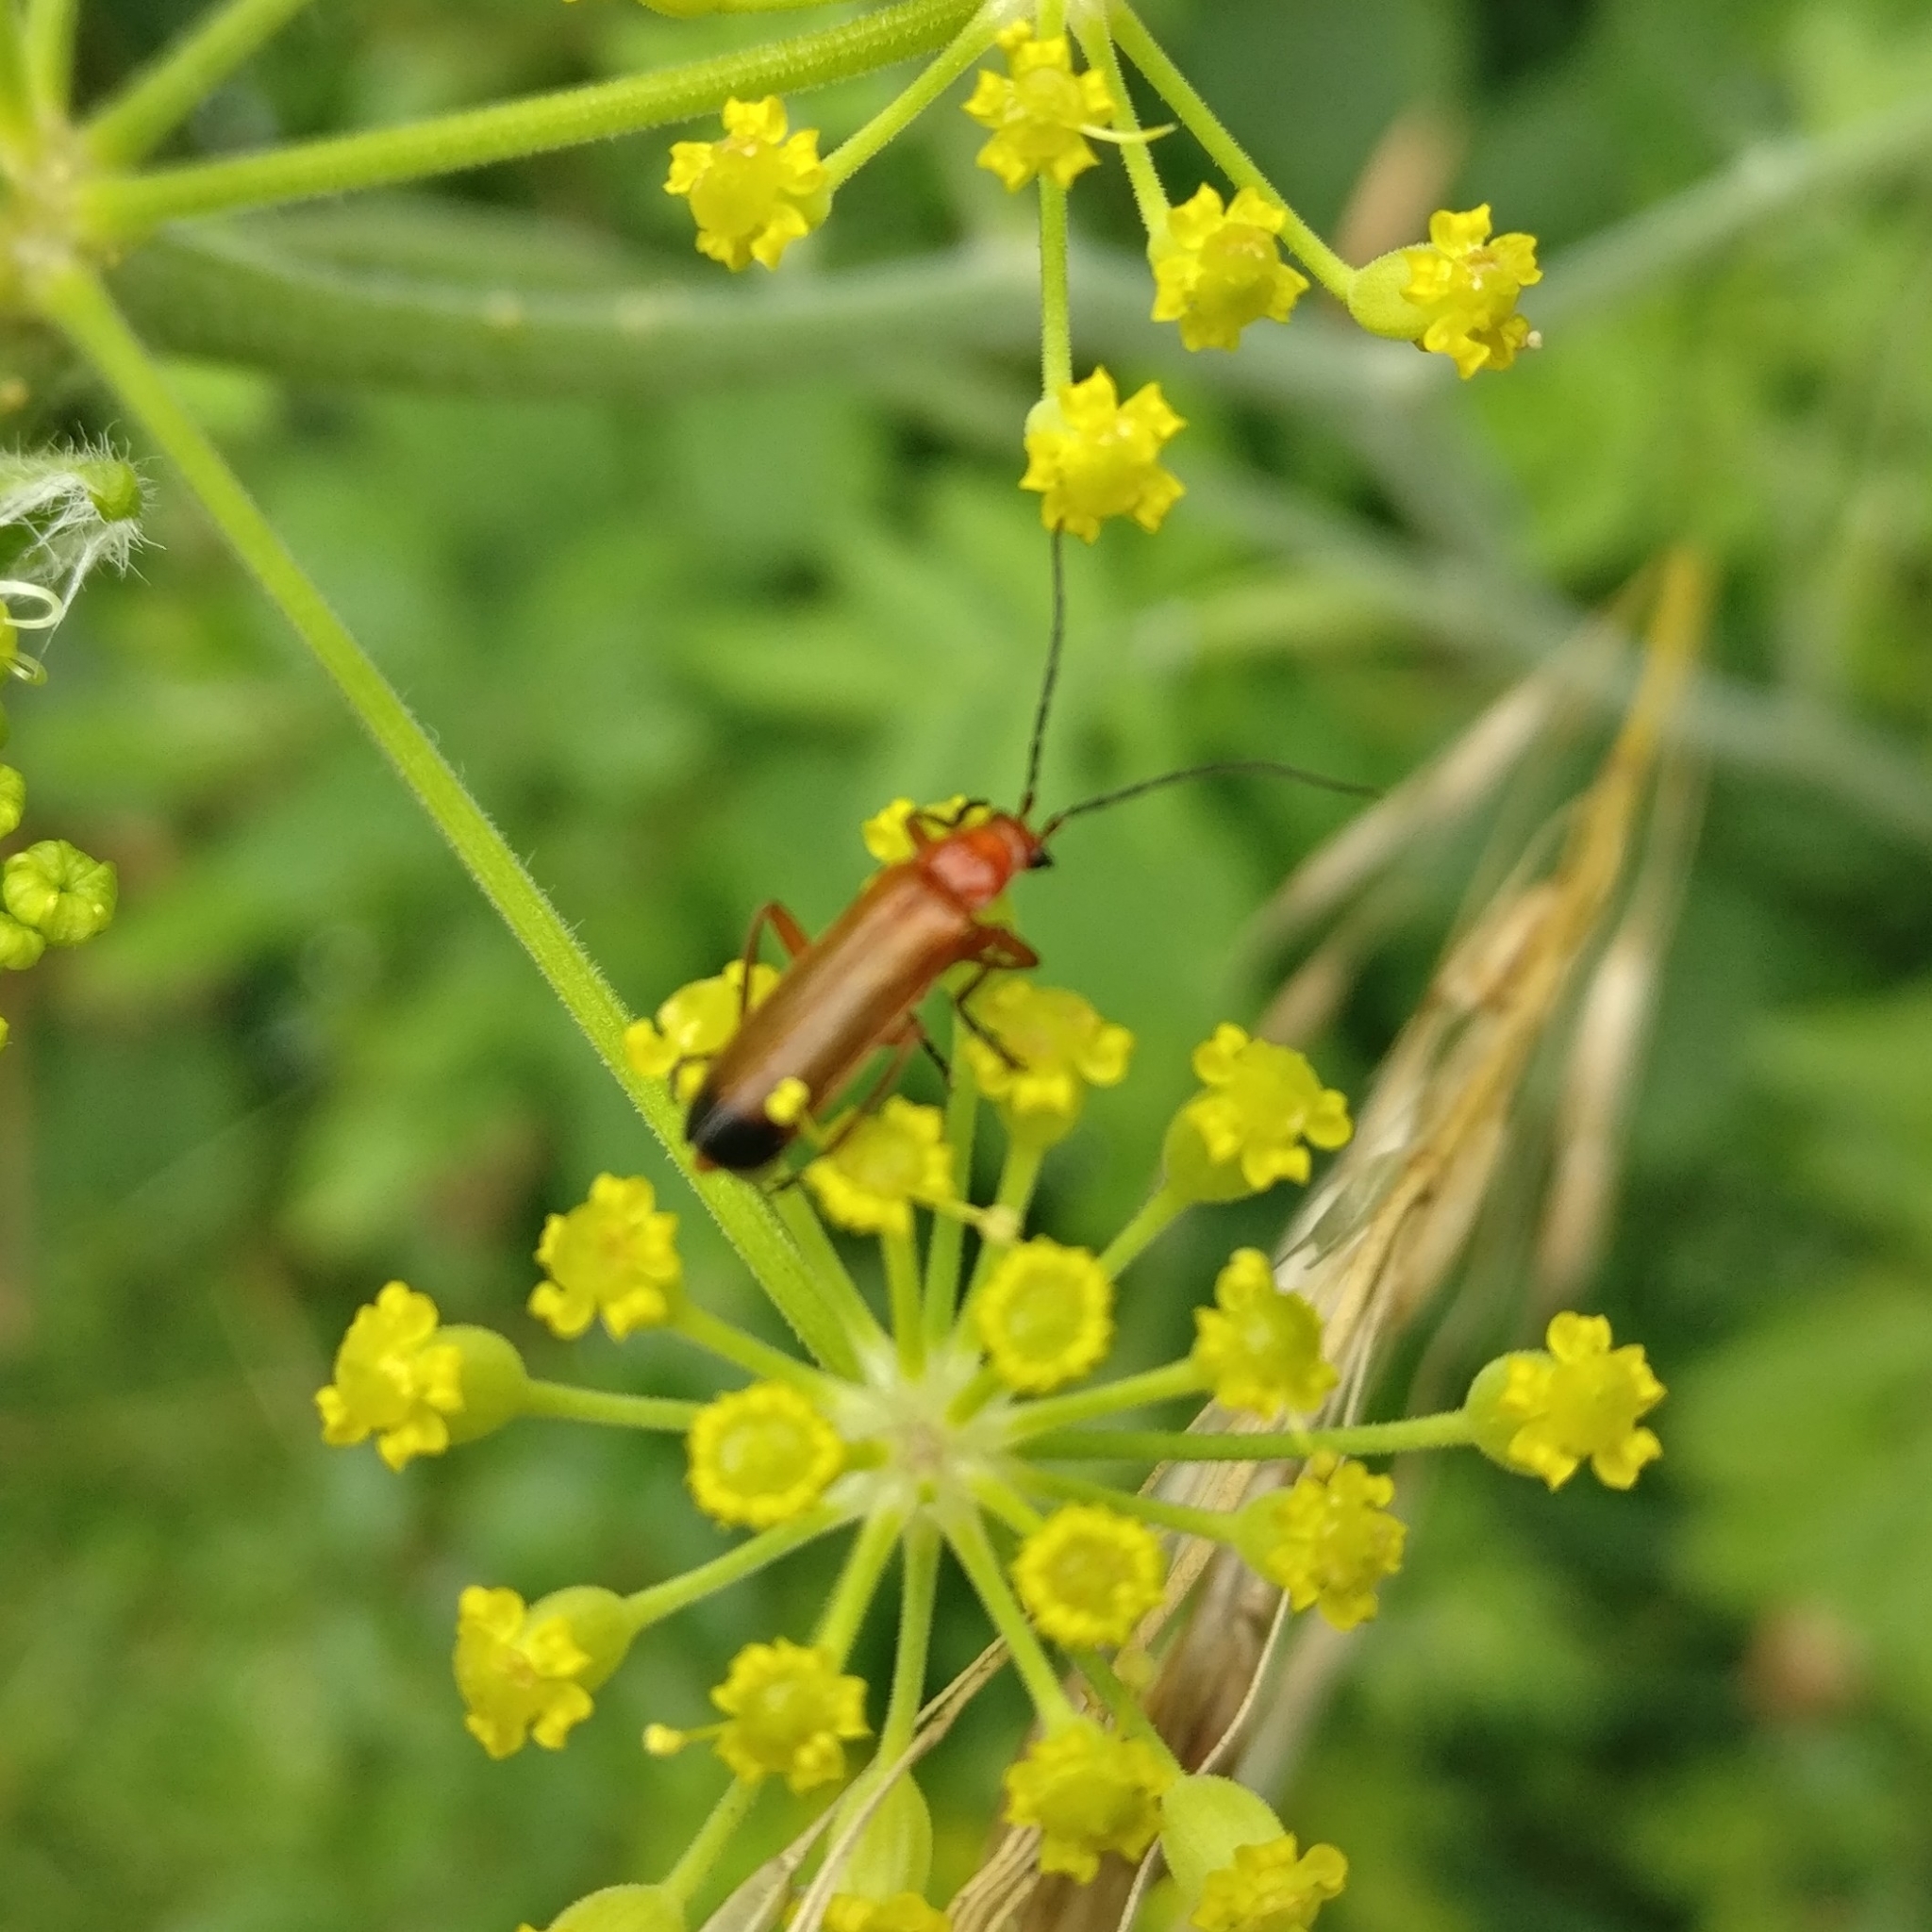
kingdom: Animalia
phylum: Arthropoda
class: Insecta
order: Coleoptera
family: Cantharidae
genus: Rhagonycha
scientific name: Rhagonycha fulva
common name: Common red soldier beetle
